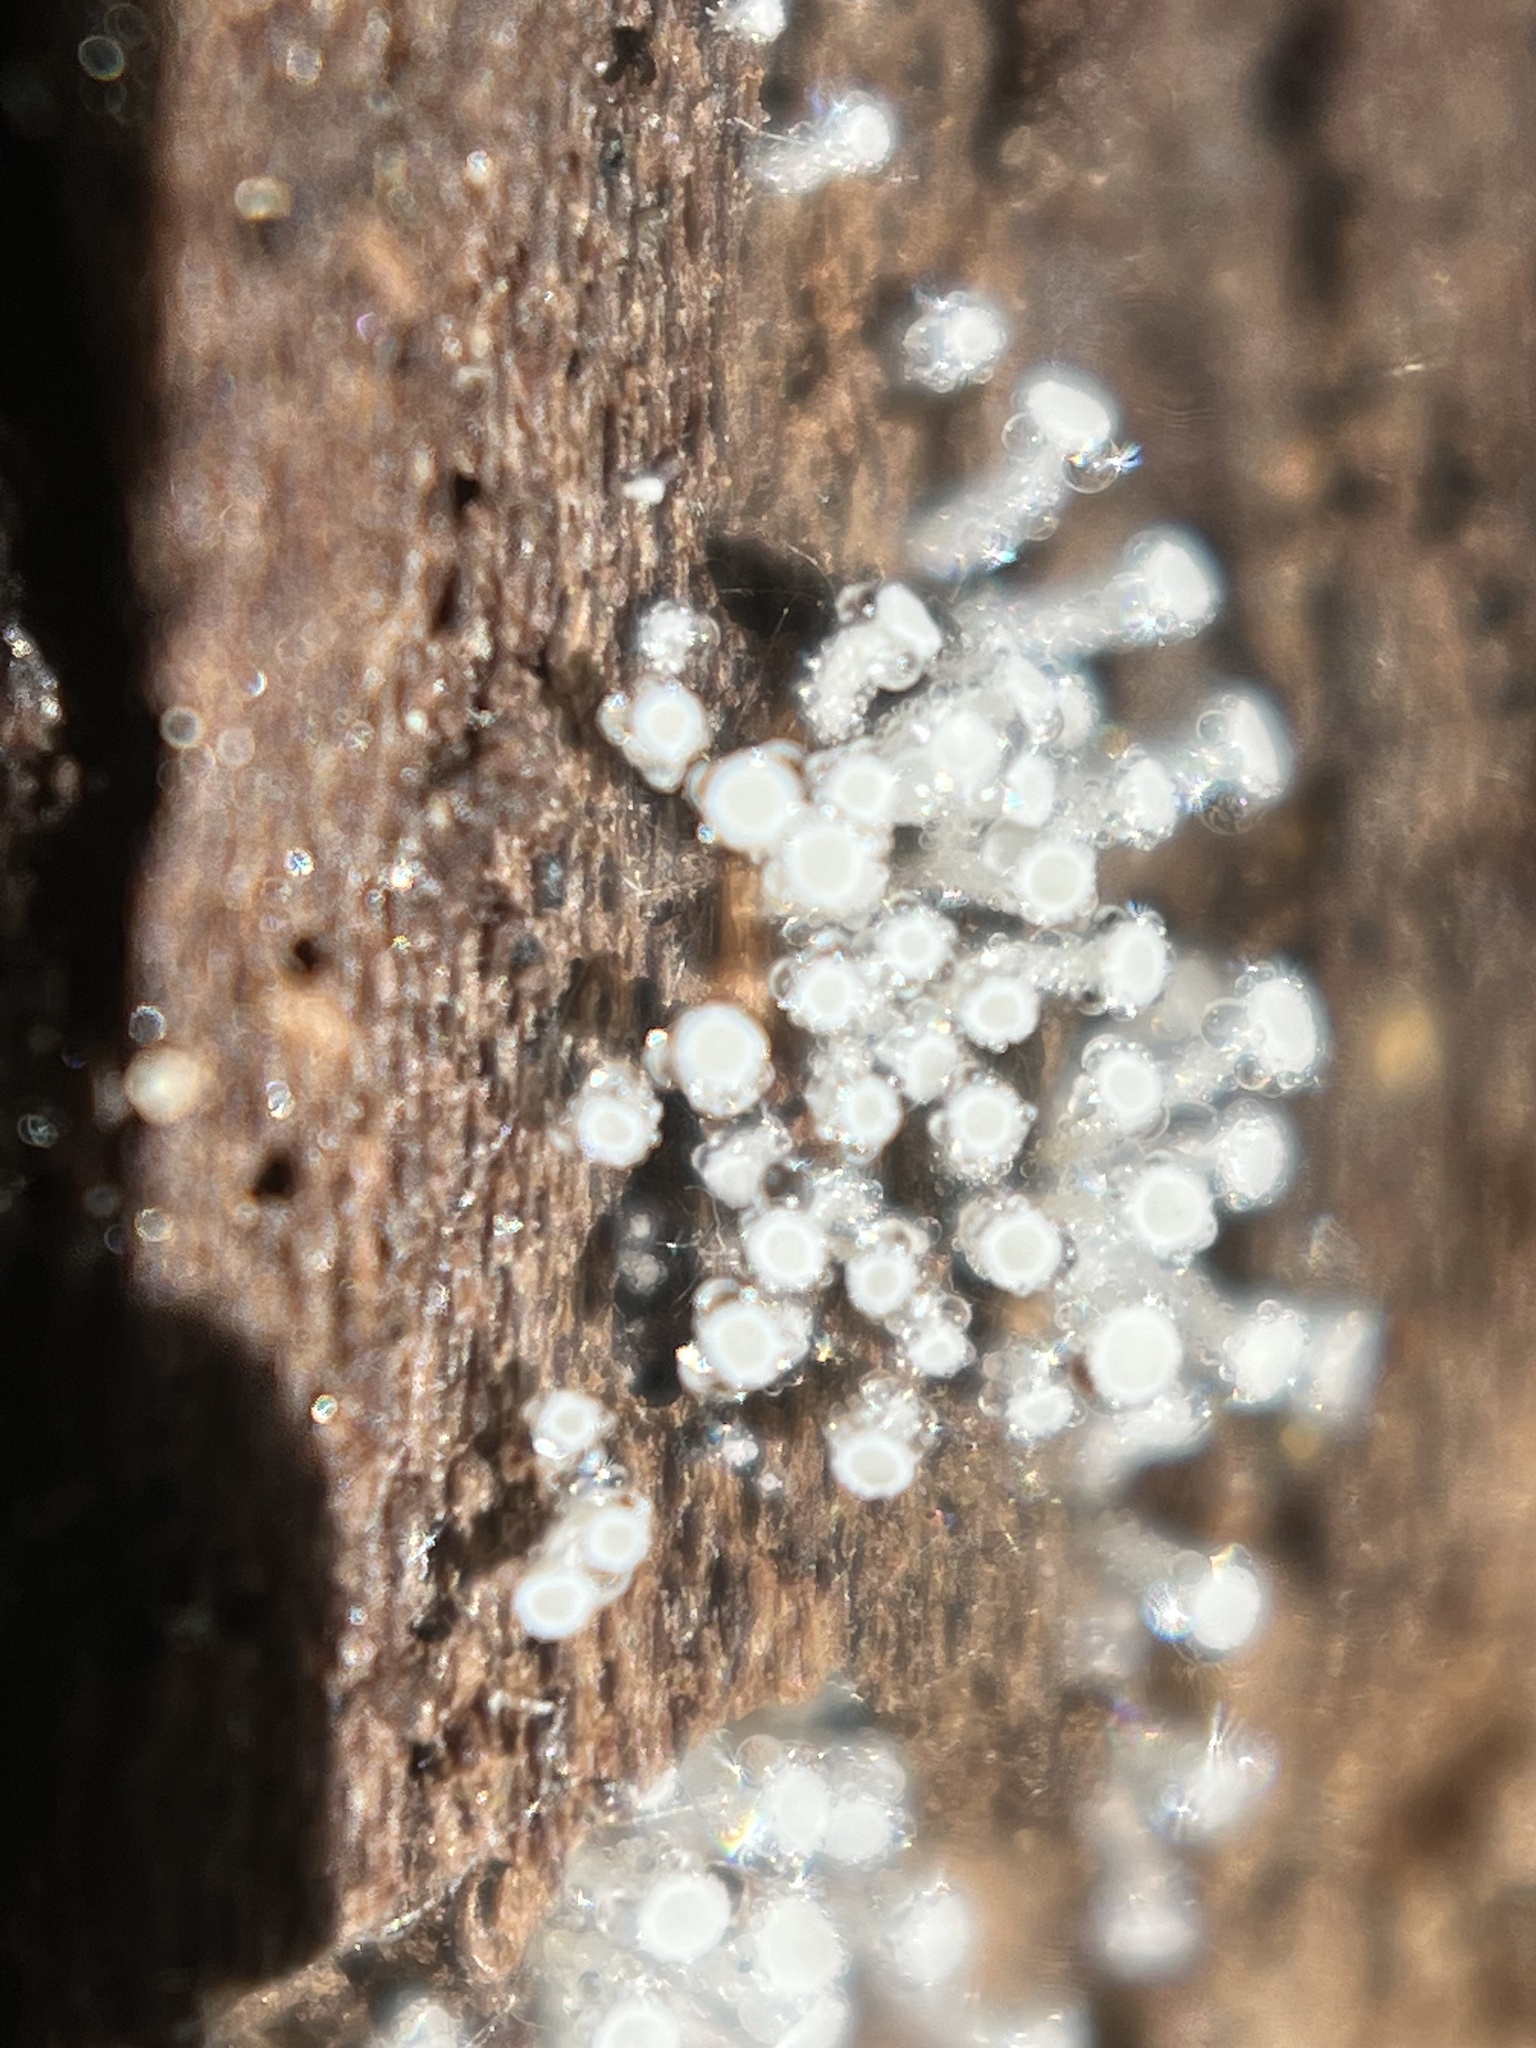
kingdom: Fungi
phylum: Ascomycota
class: Leotiomycetes
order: Helotiales
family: Lachnaceae
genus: Lachnum
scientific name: Lachnum virgineum
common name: Snowy disco
